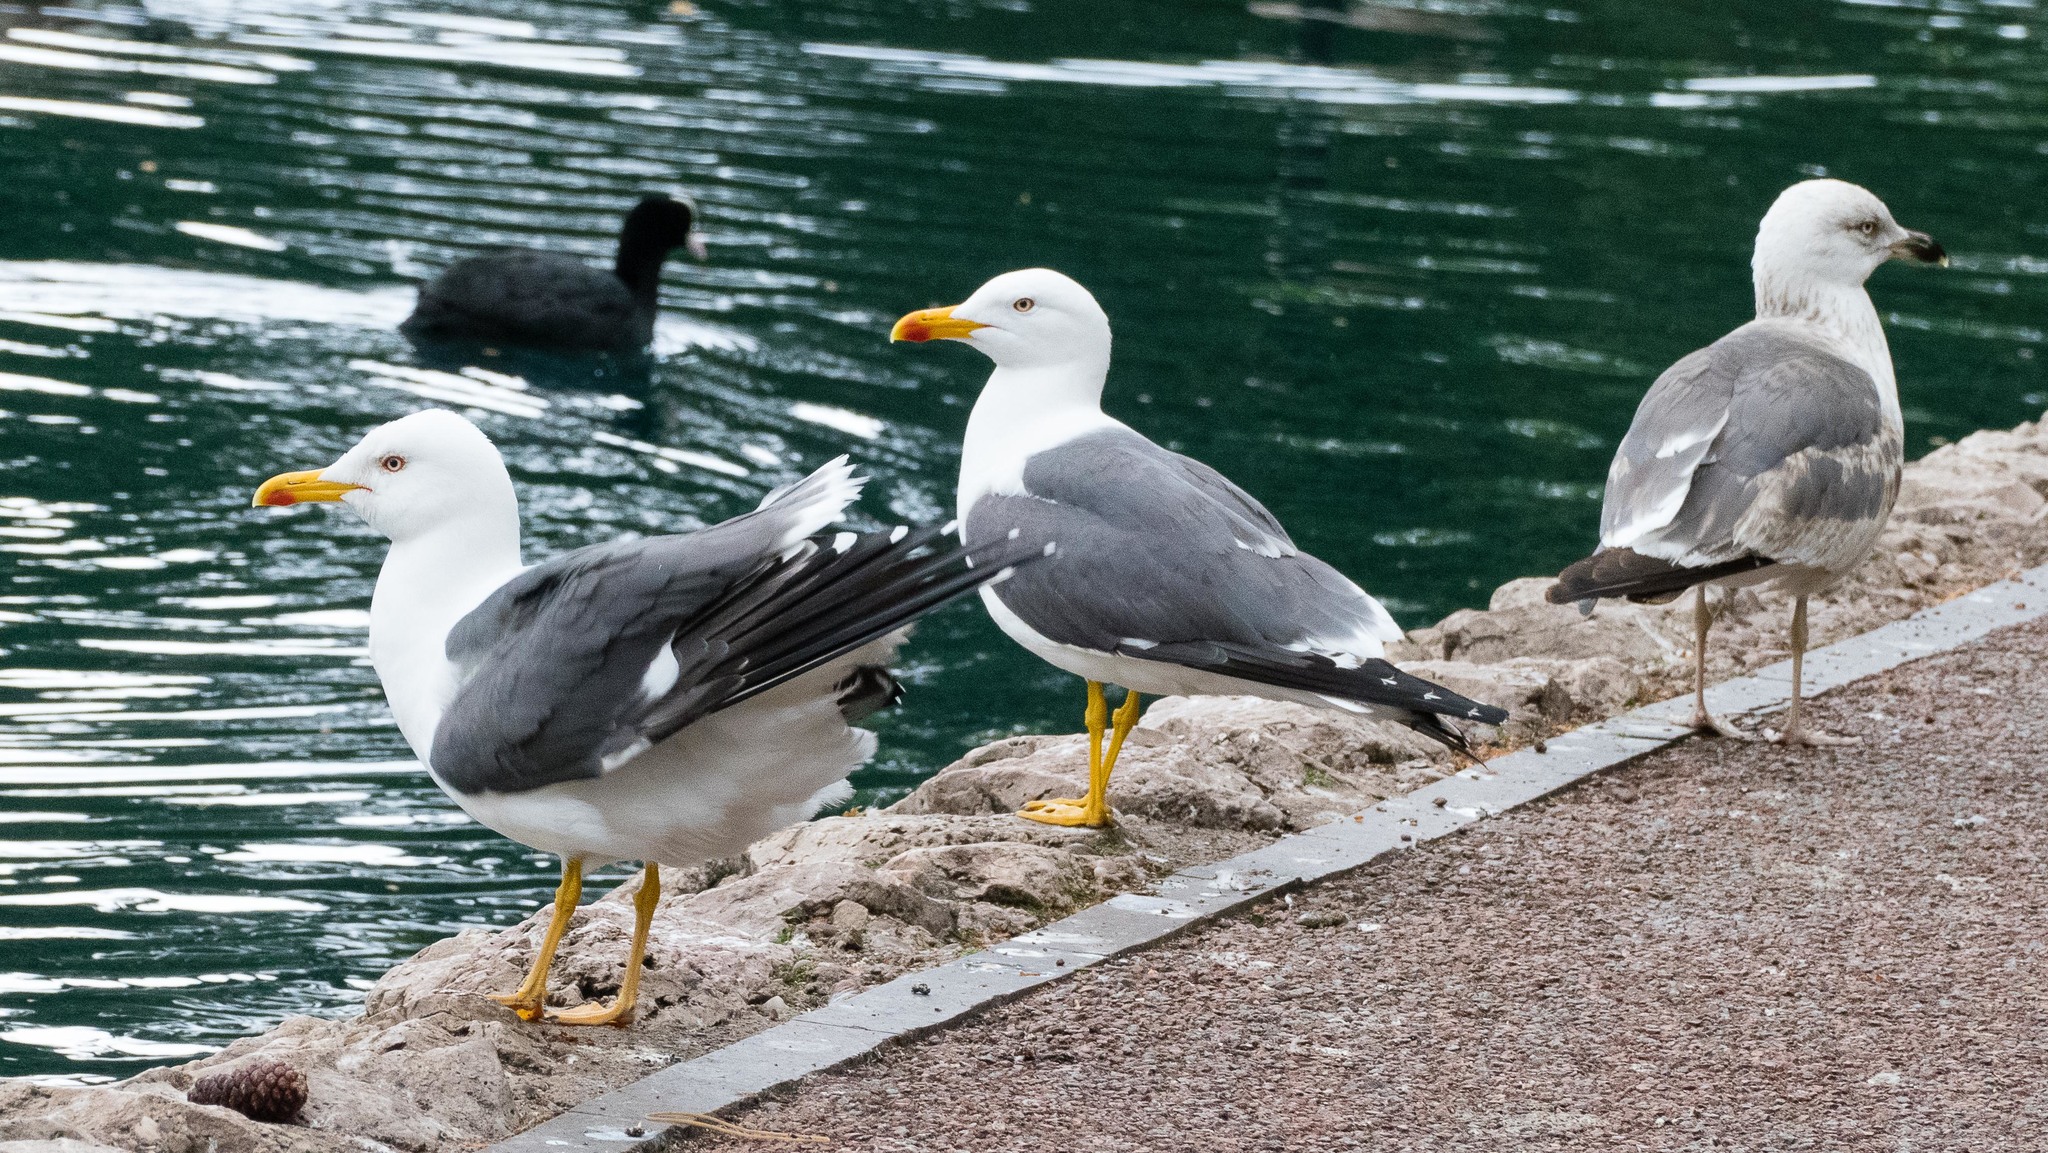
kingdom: Animalia
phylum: Chordata
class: Aves
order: Charadriiformes
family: Laridae
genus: Larus
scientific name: Larus fuscus
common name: Lesser black-backed gull
